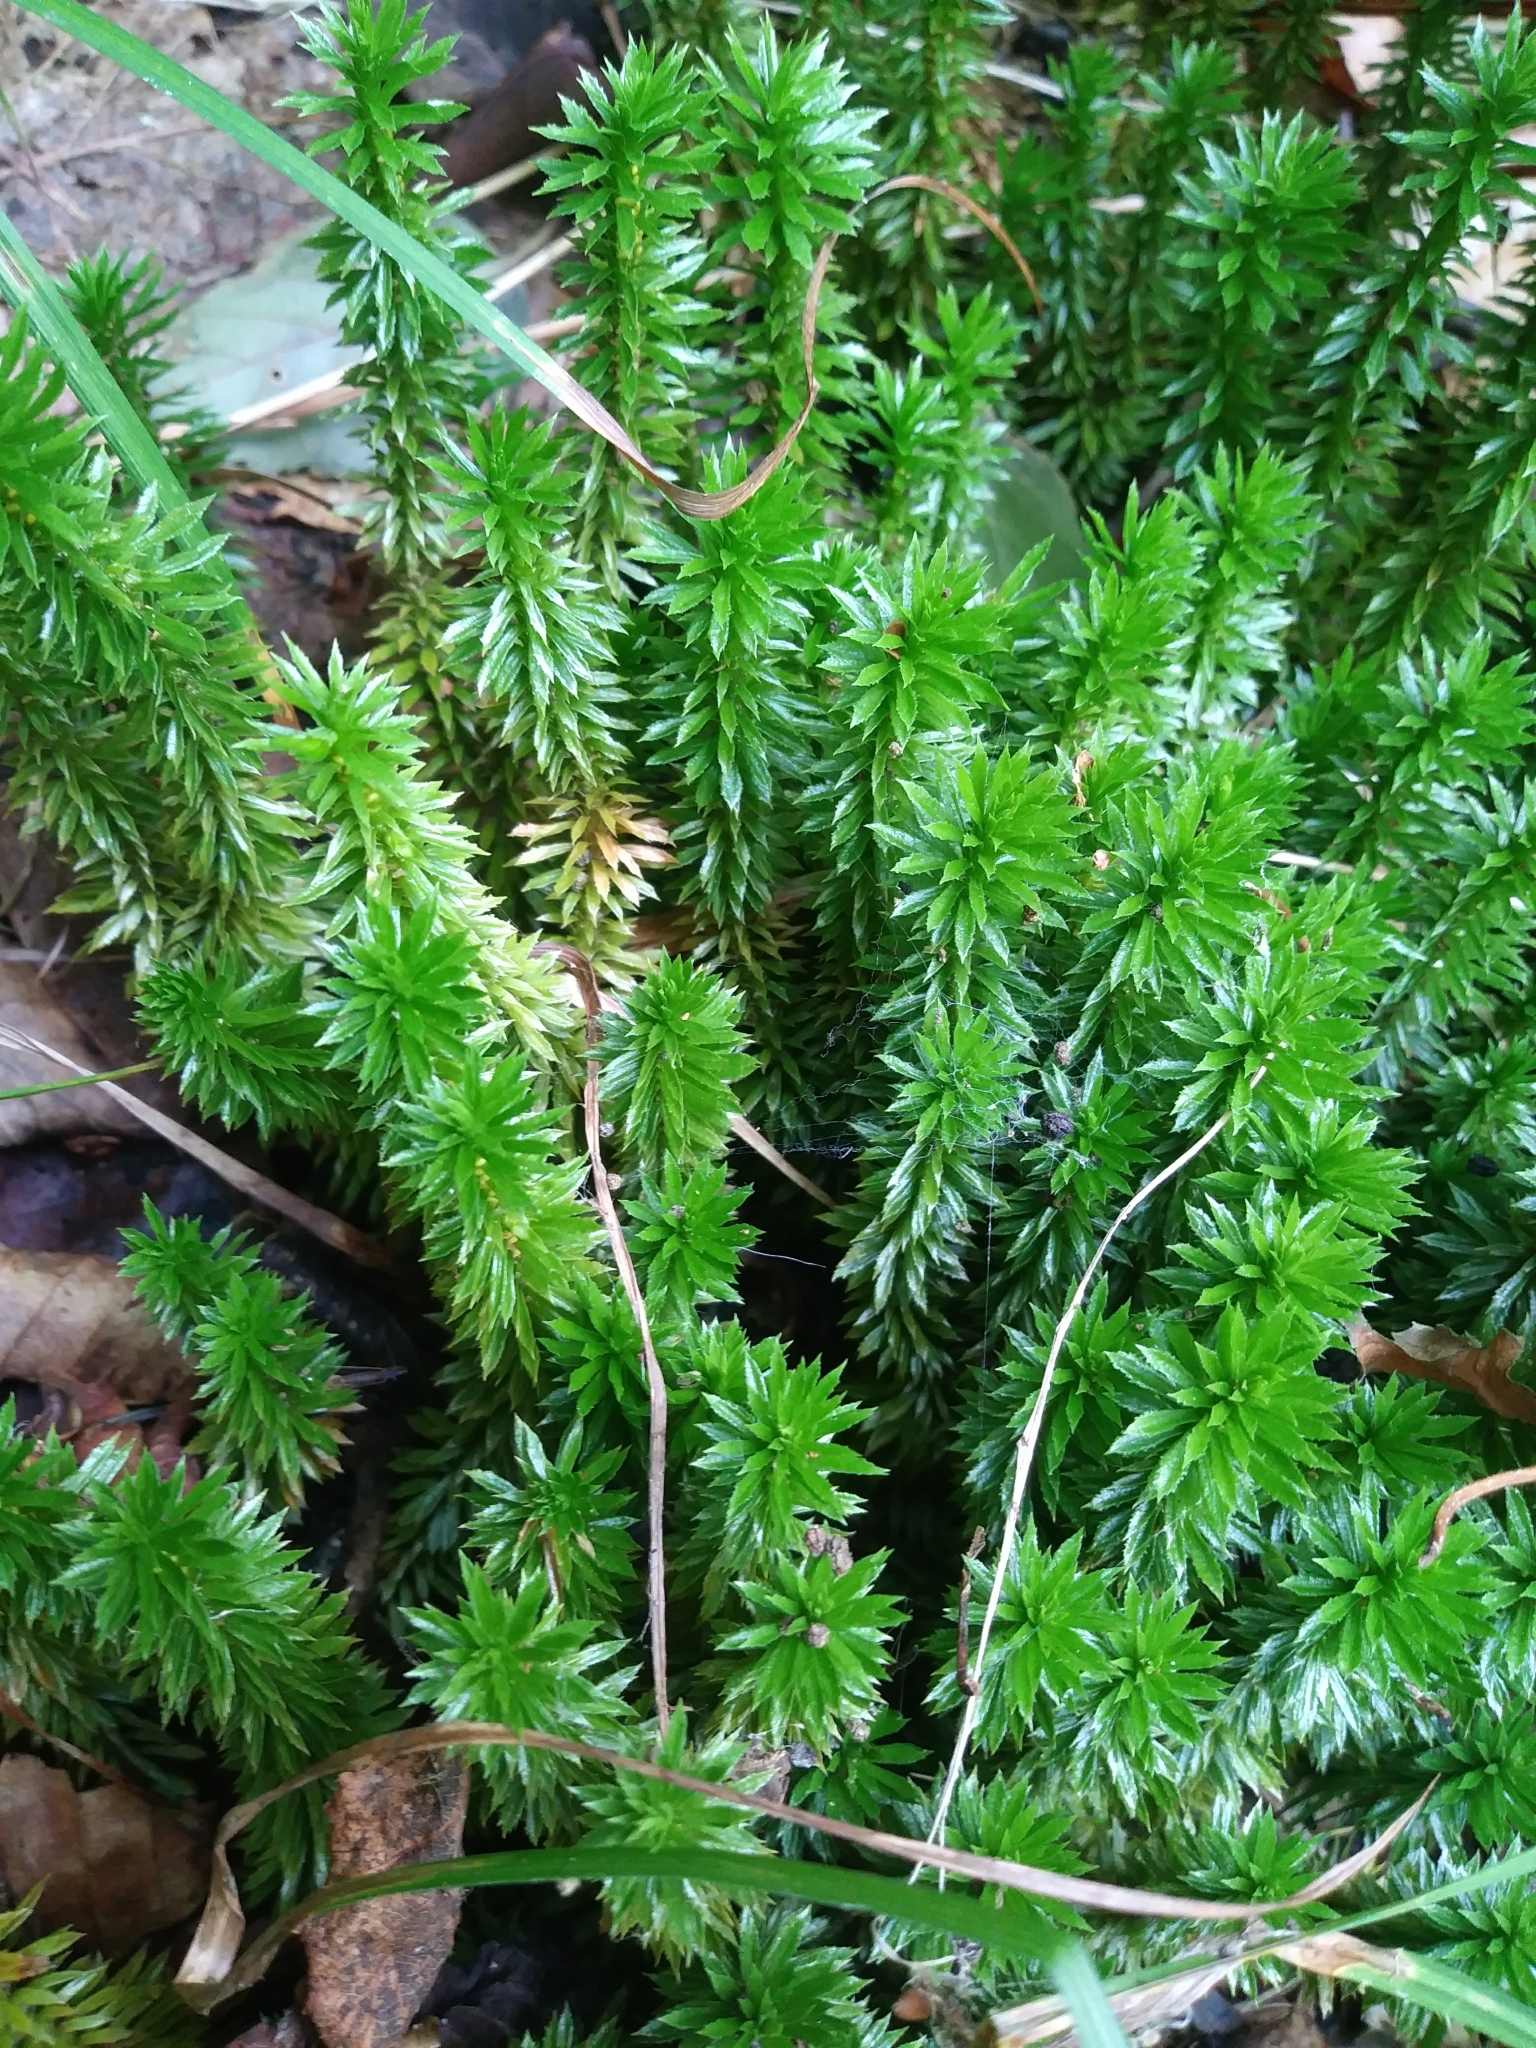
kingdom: Plantae
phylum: Tracheophyta
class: Lycopodiopsida
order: Lycopodiales
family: Lycopodiaceae
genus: Huperzia
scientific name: Huperzia lucidula
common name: Shining clubmoss
